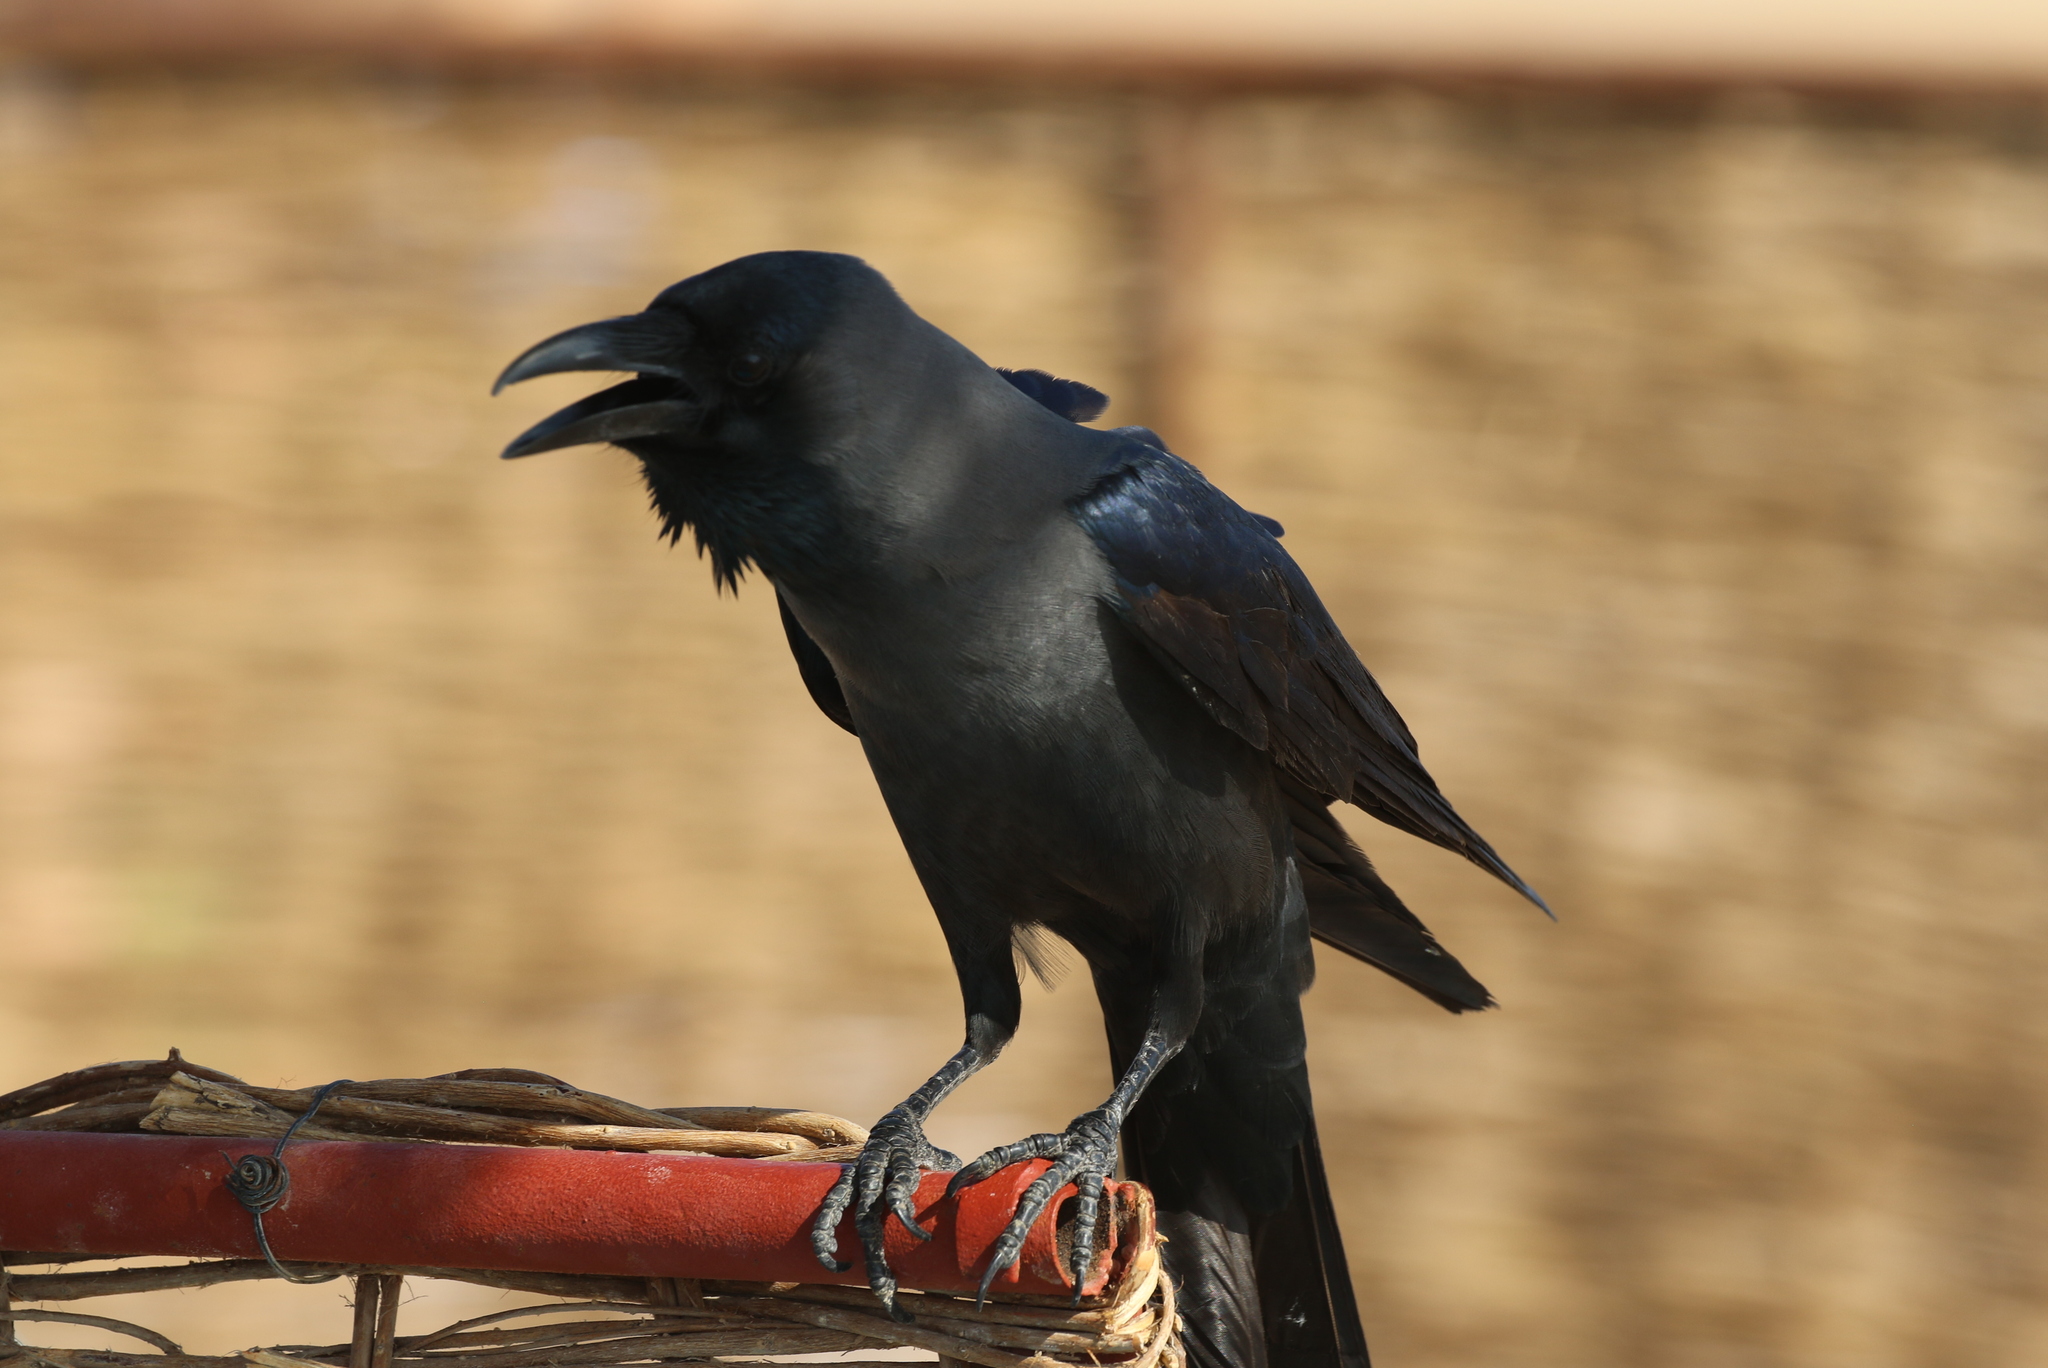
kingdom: Animalia
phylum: Chordata
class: Aves
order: Passeriformes
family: Corvidae
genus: Corvus
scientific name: Corvus splendens
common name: House crow
